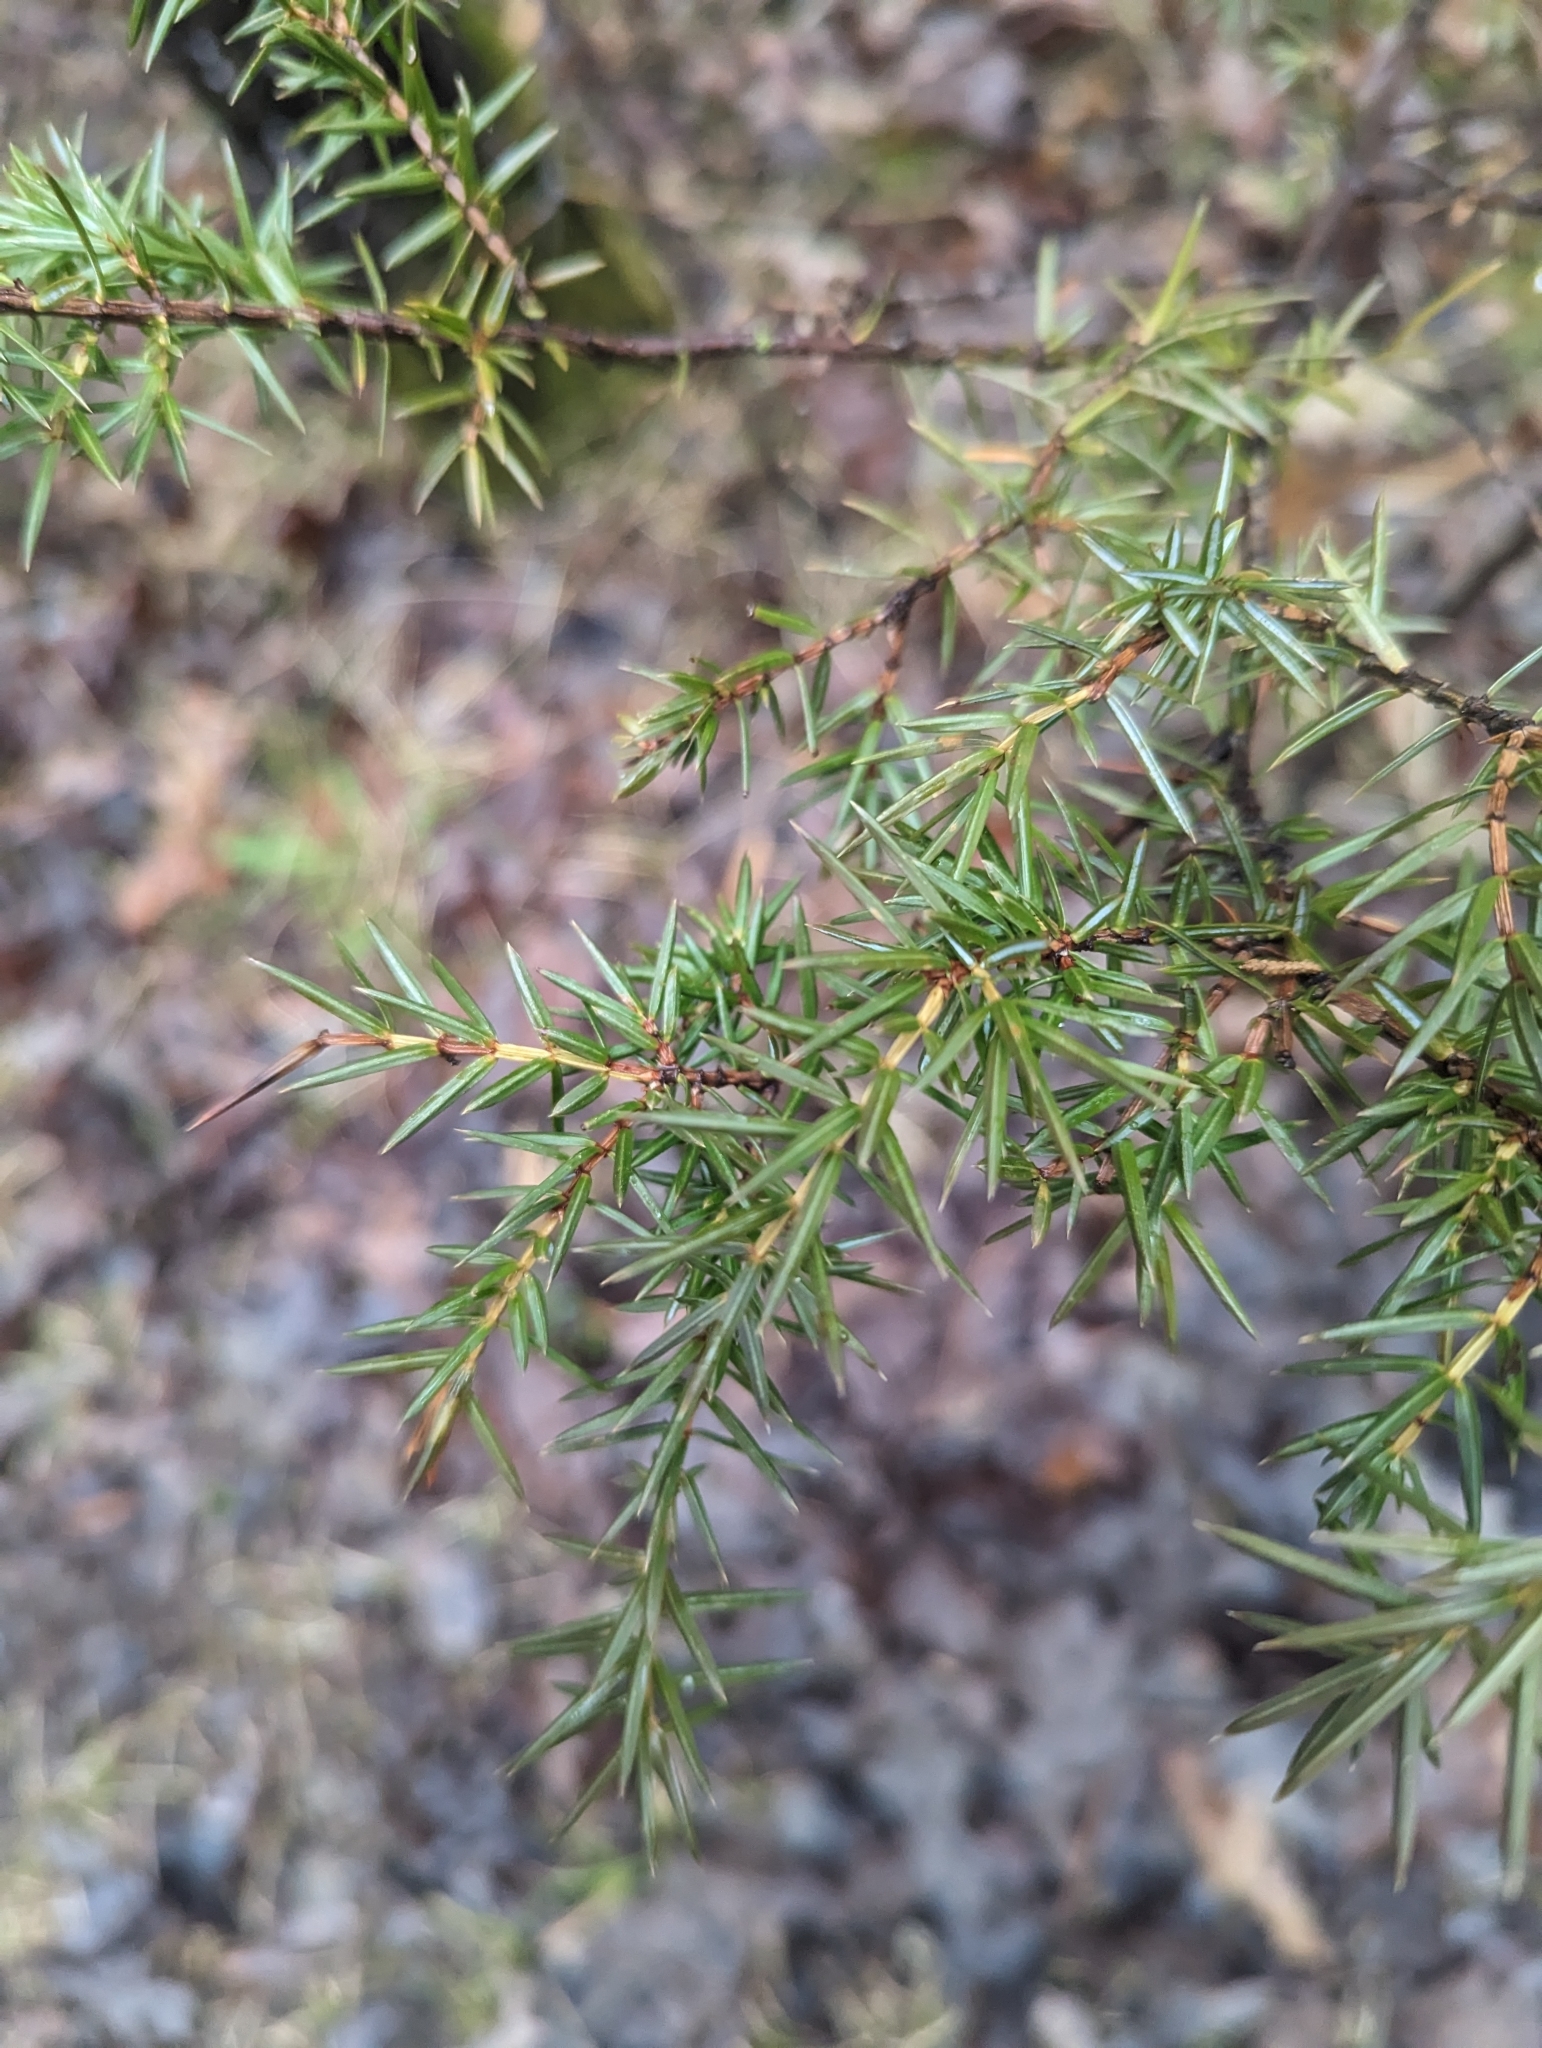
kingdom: Plantae
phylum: Tracheophyta
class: Pinopsida
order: Pinales
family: Cupressaceae
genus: Juniperus
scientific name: Juniperus communis
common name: Common juniper
